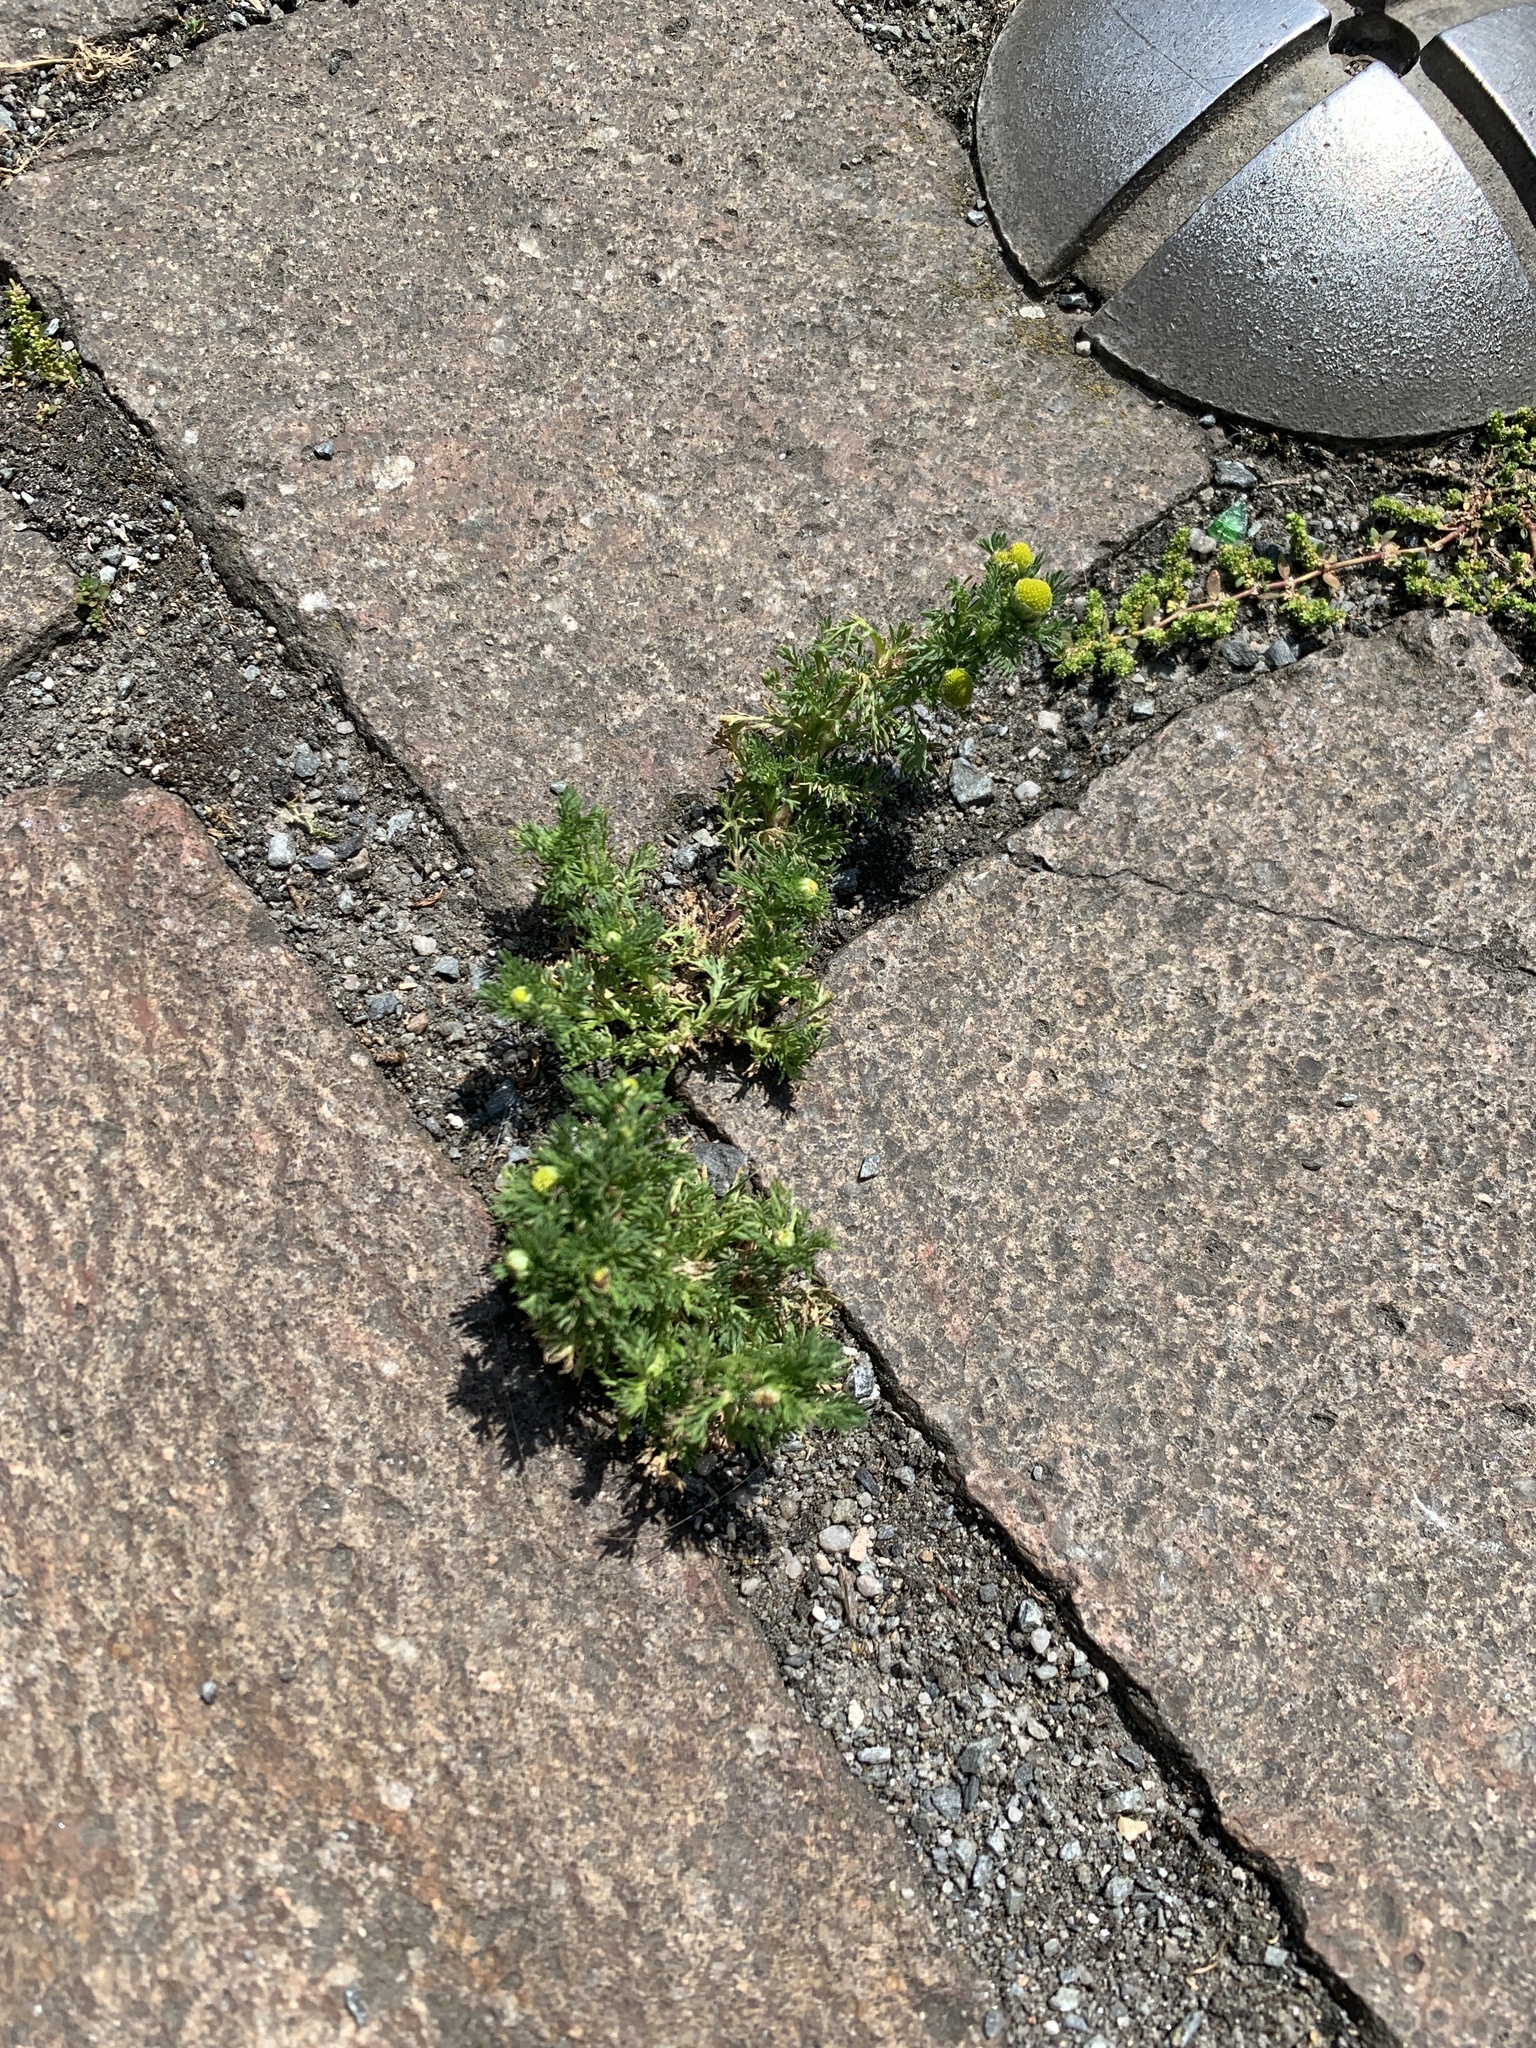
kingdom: Plantae
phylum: Tracheophyta
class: Magnoliopsida
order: Asterales
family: Asteraceae
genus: Matricaria
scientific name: Matricaria discoidea
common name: Disc mayweed
